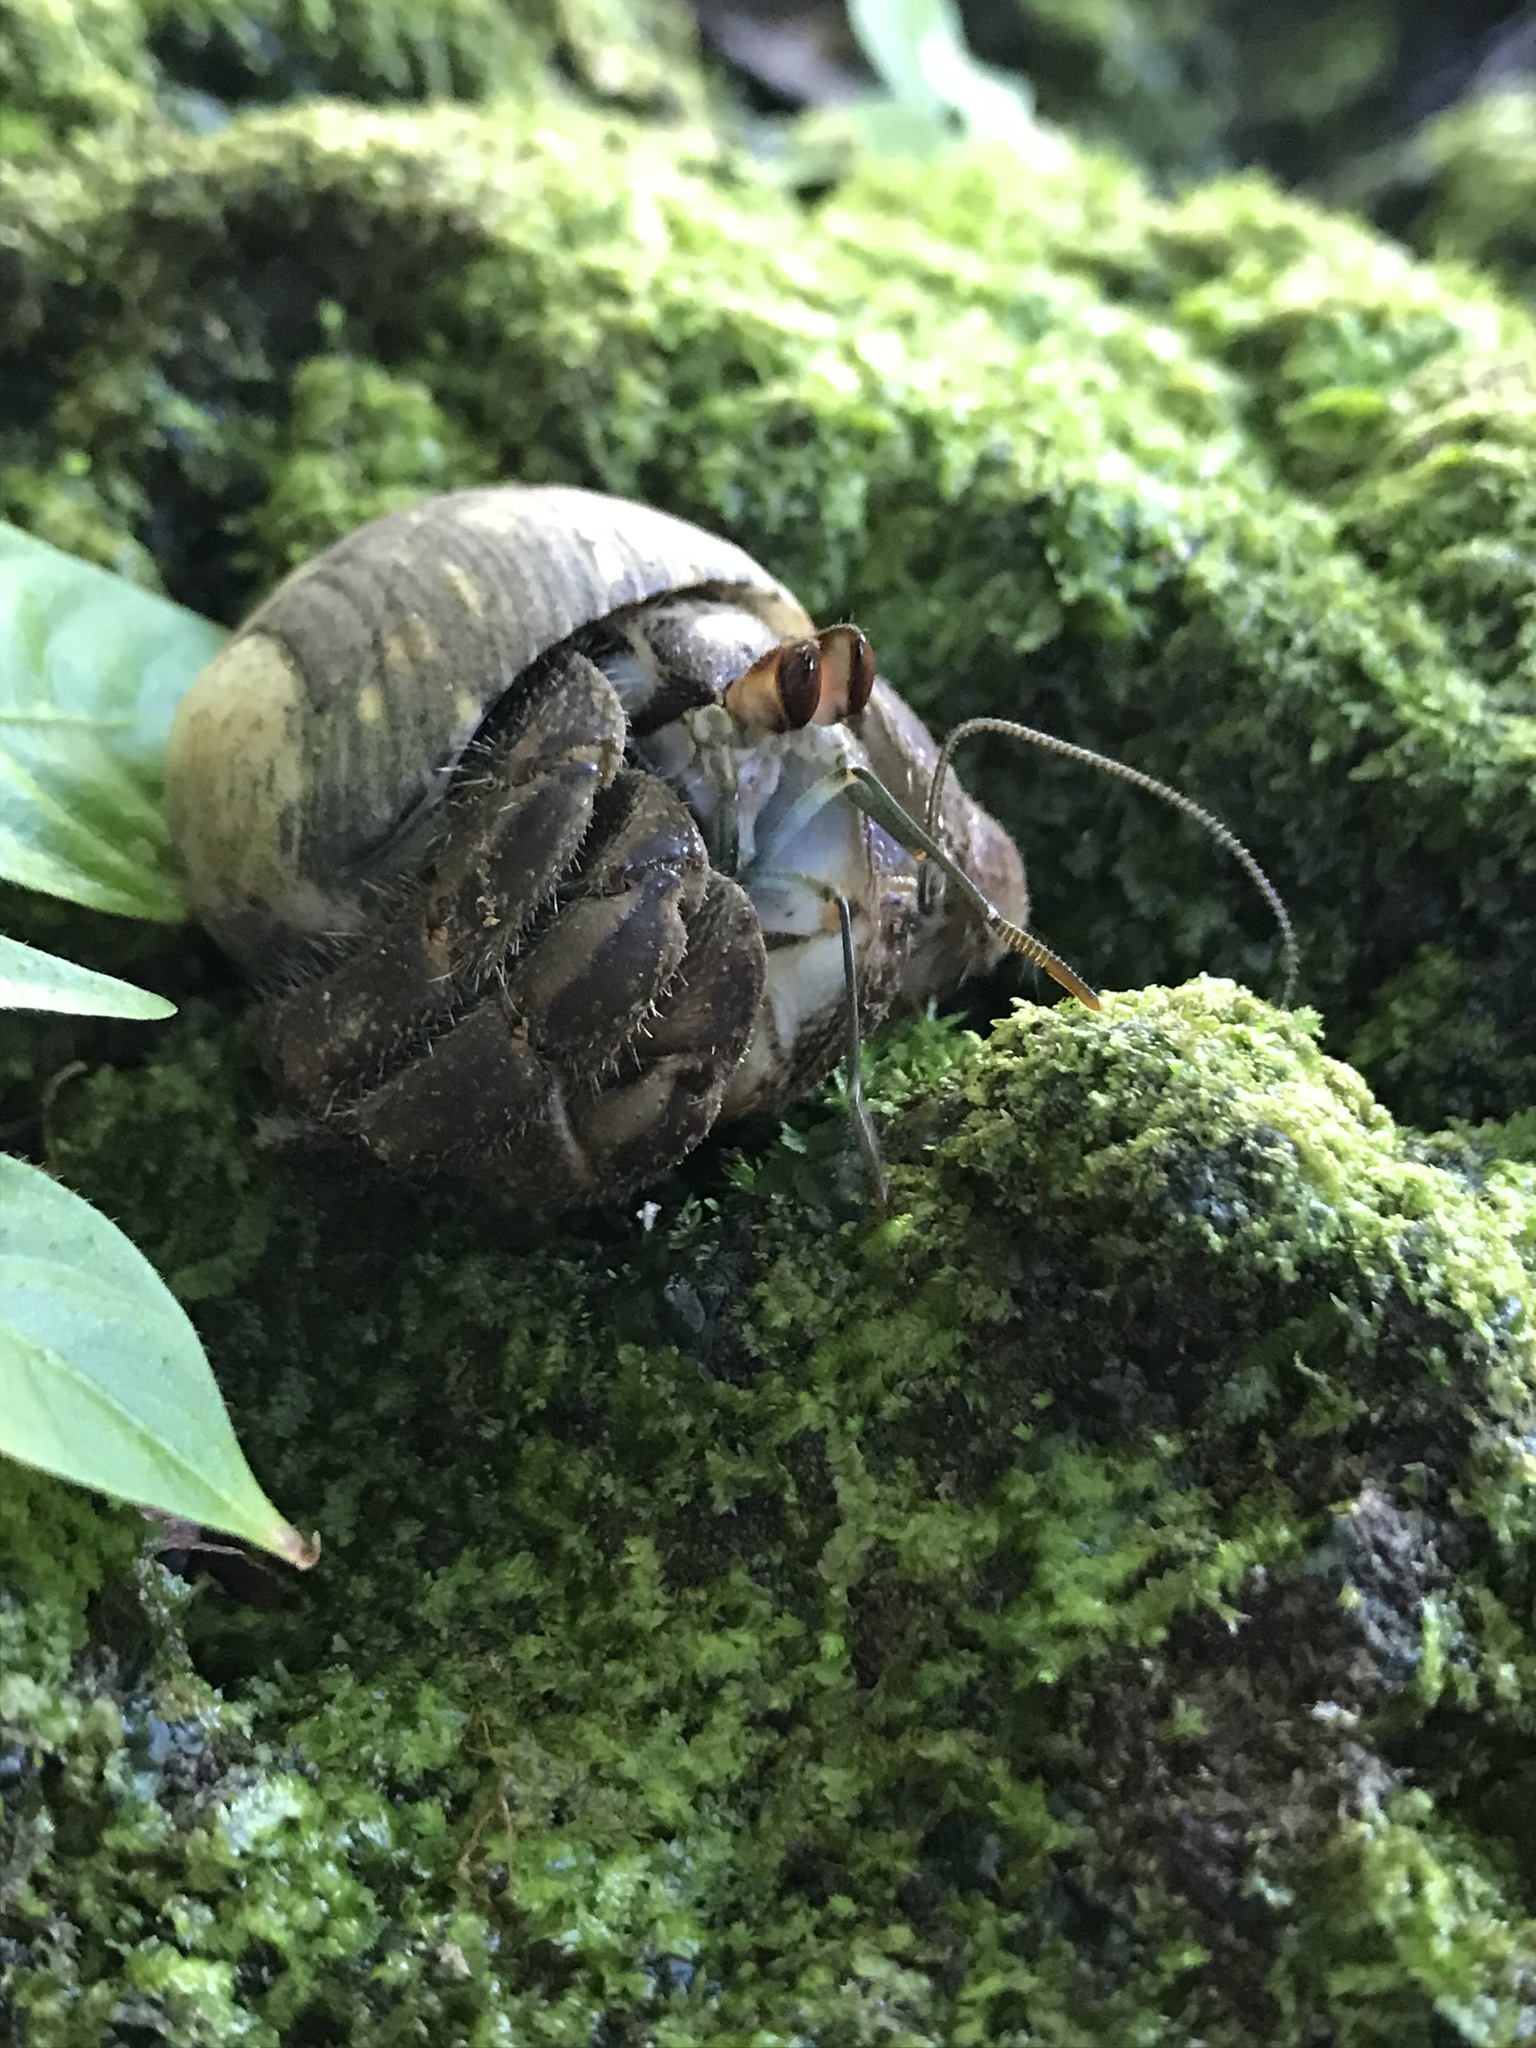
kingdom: Animalia
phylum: Arthropoda
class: Malacostraca
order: Decapoda
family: Coenobitidae
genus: Coenobita
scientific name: Coenobita compressus
